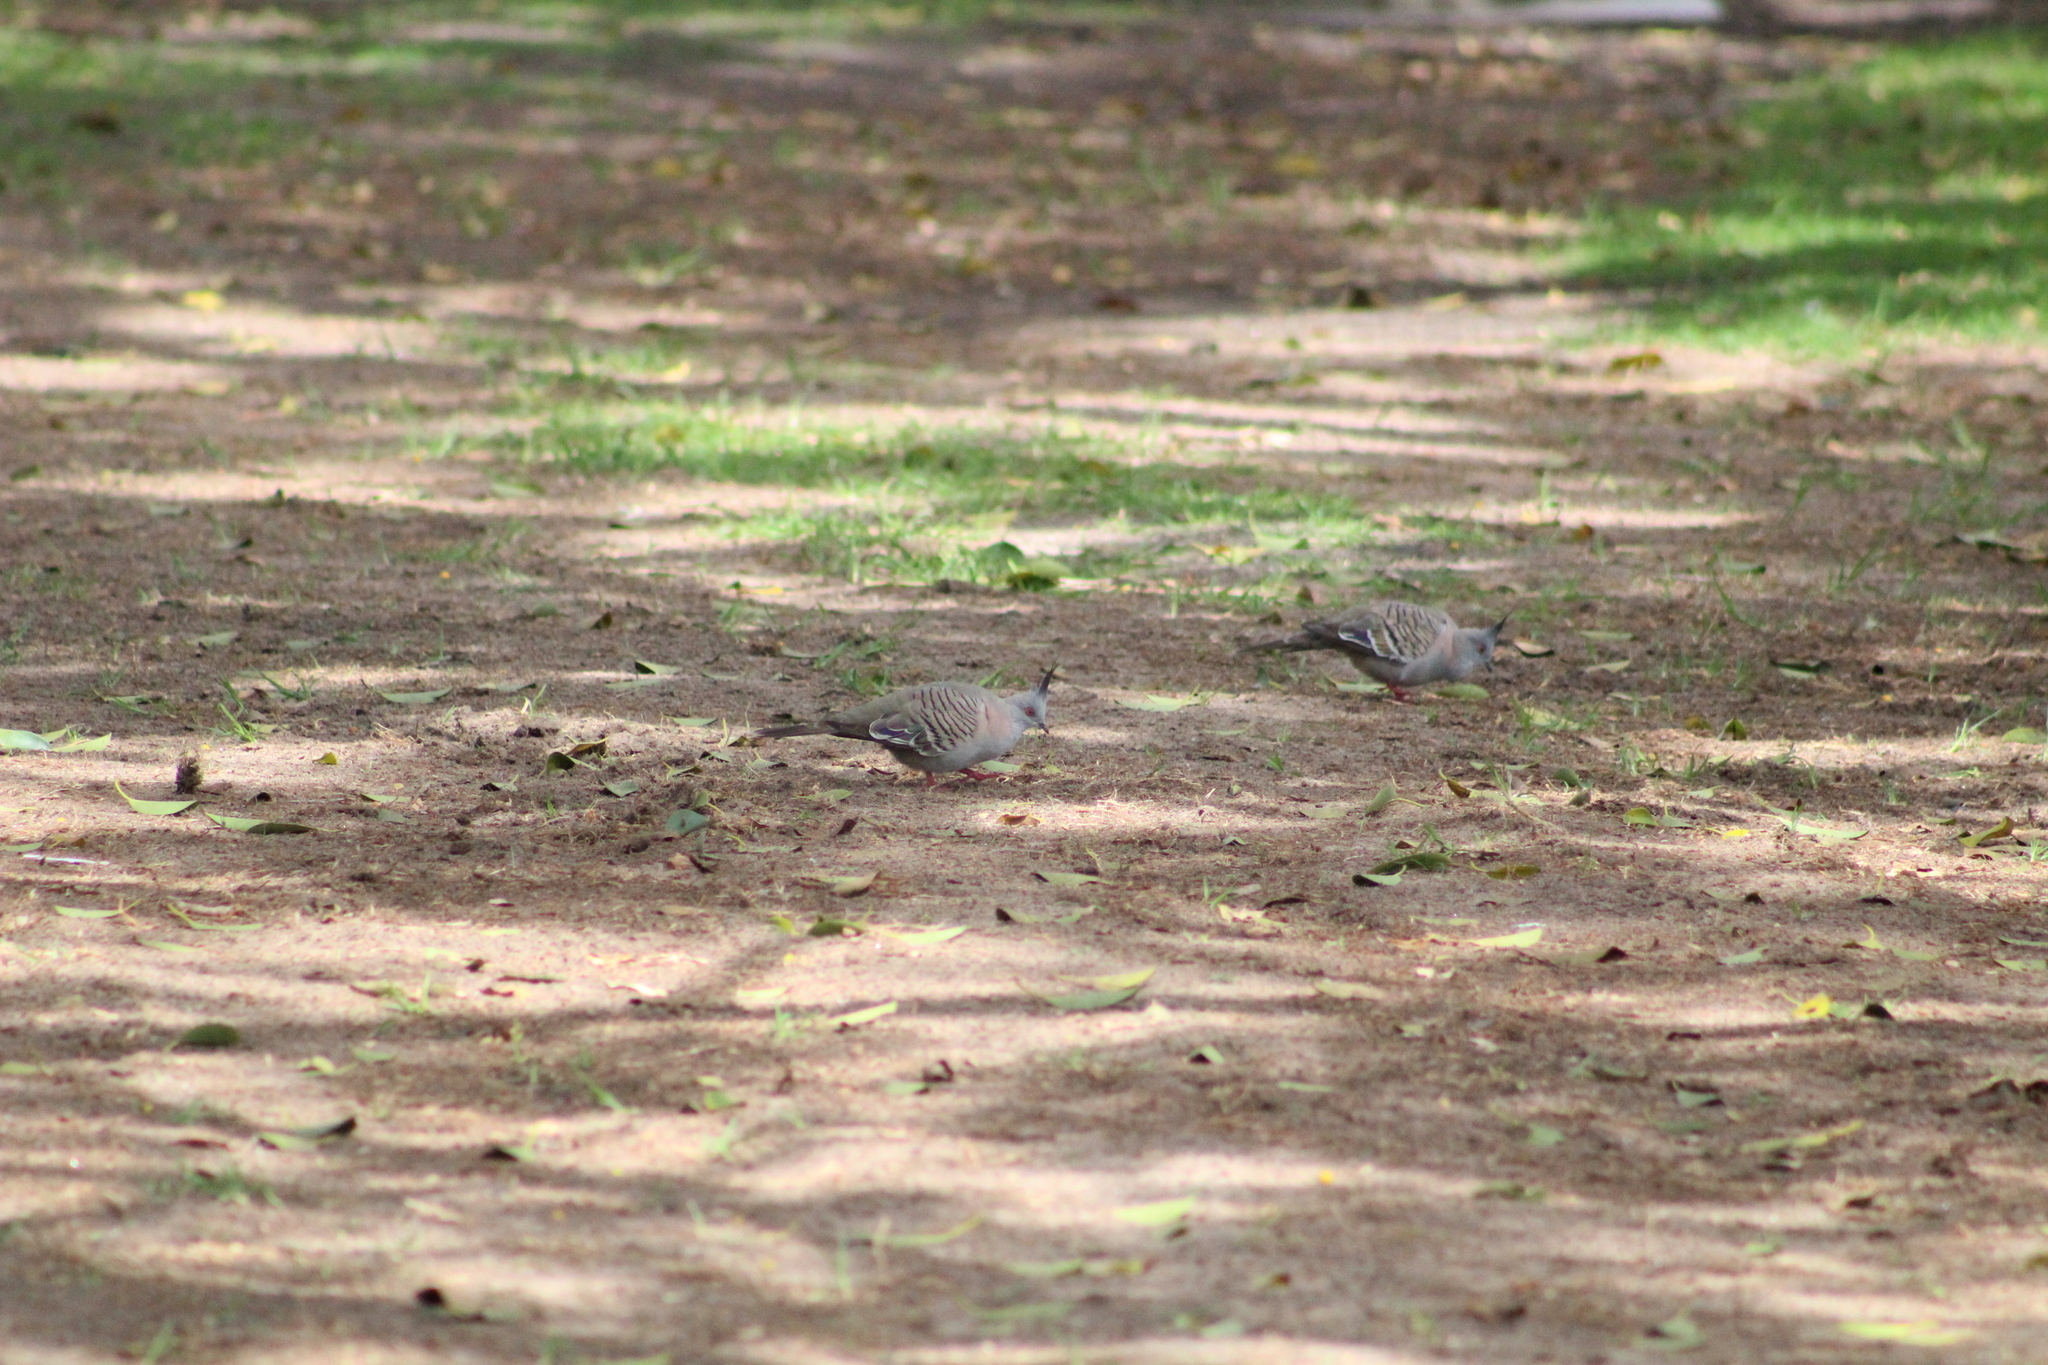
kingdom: Animalia
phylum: Chordata
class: Aves
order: Columbiformes
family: Columbidae
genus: Ocyphaps
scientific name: Ocyphaps lophotes
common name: Crested pigeon
